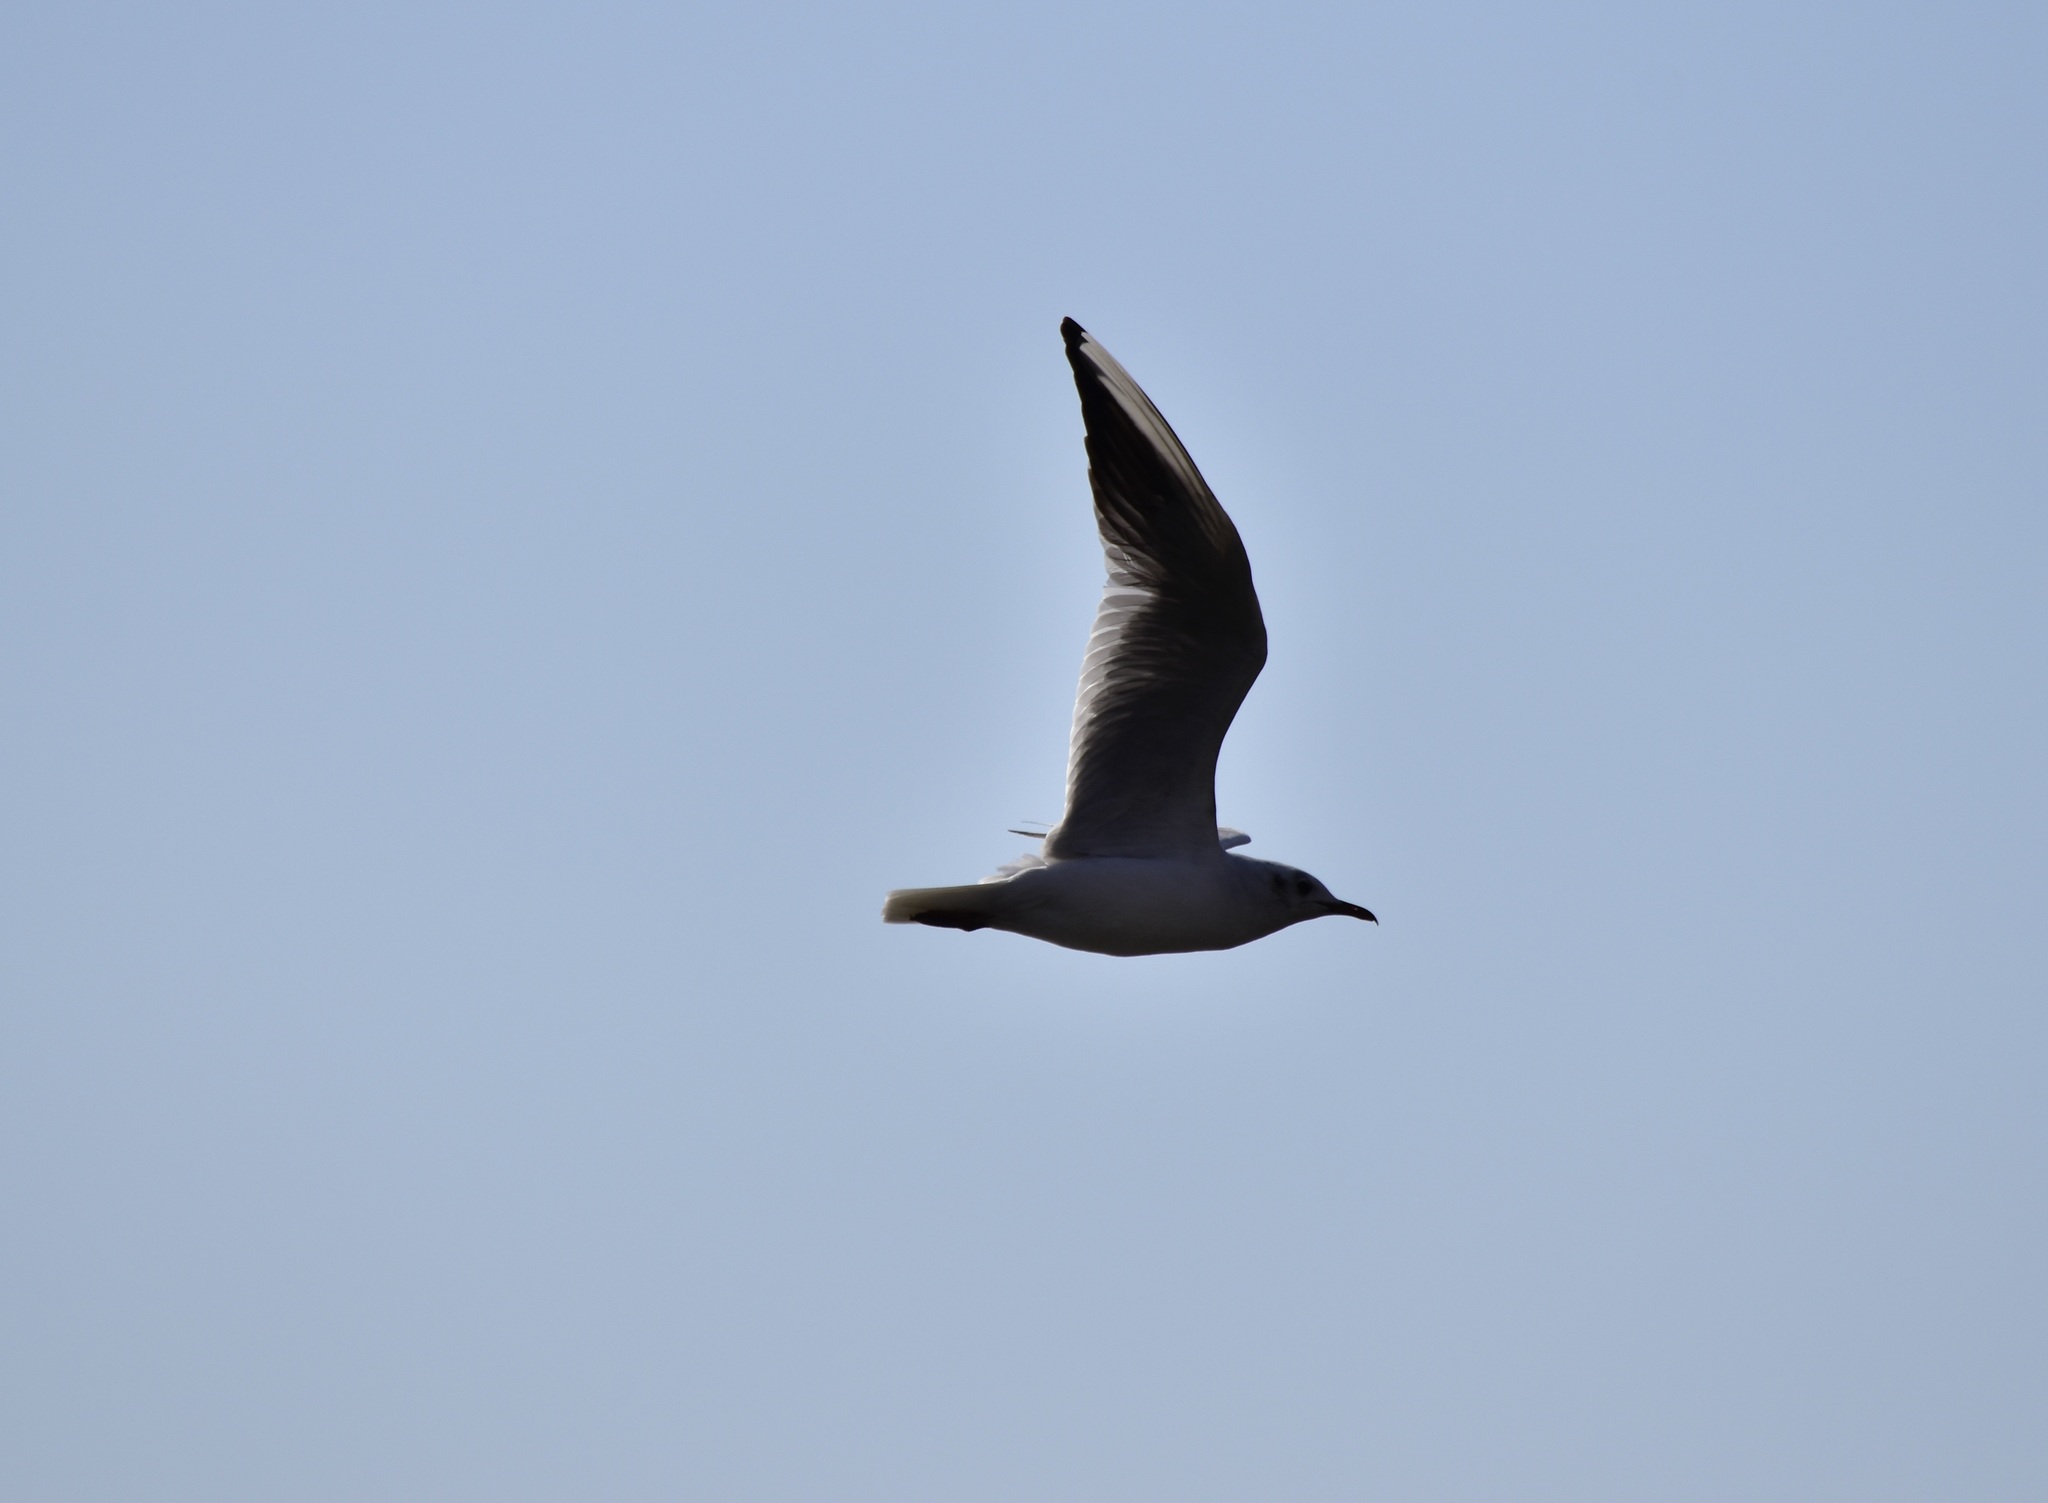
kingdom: Animalia
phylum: Chordata
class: Aves
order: Charadriiformes
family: Laridae
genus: Chroicocephalus
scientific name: Chroicocephalus ridibundus
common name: Black-headed gull
